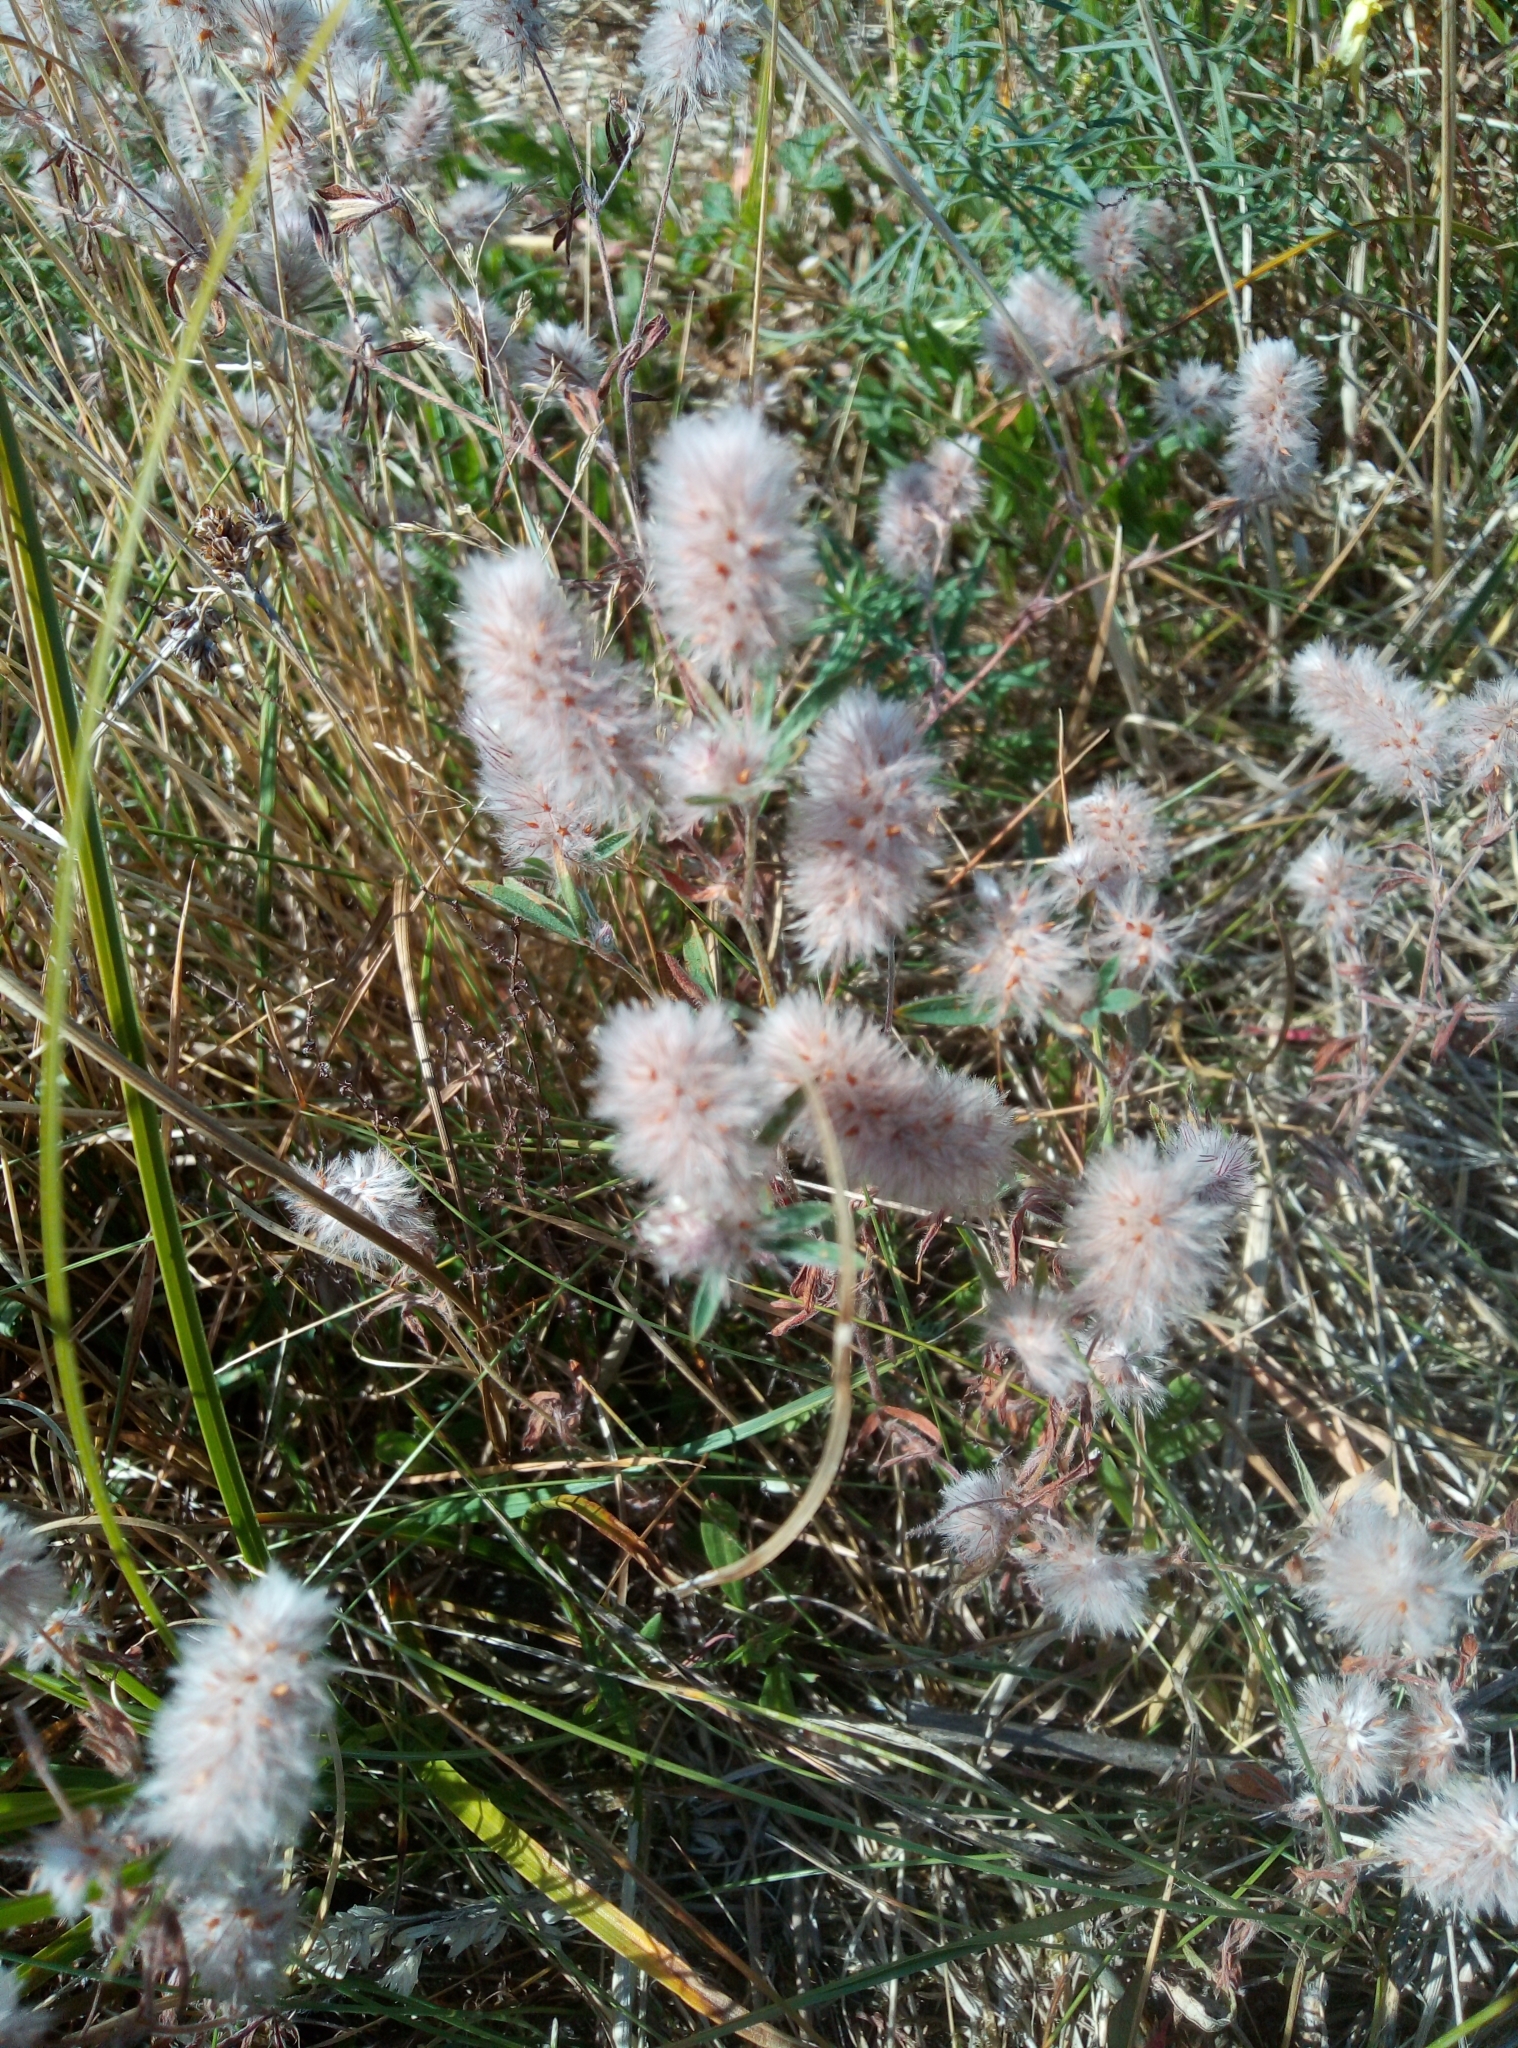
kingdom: Plantae
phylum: Tracheophyta
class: Magnoliopsida
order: Fabales
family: Fabaceae
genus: Trifolium
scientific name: Trifolium arvense
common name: Hare's-foot clover
